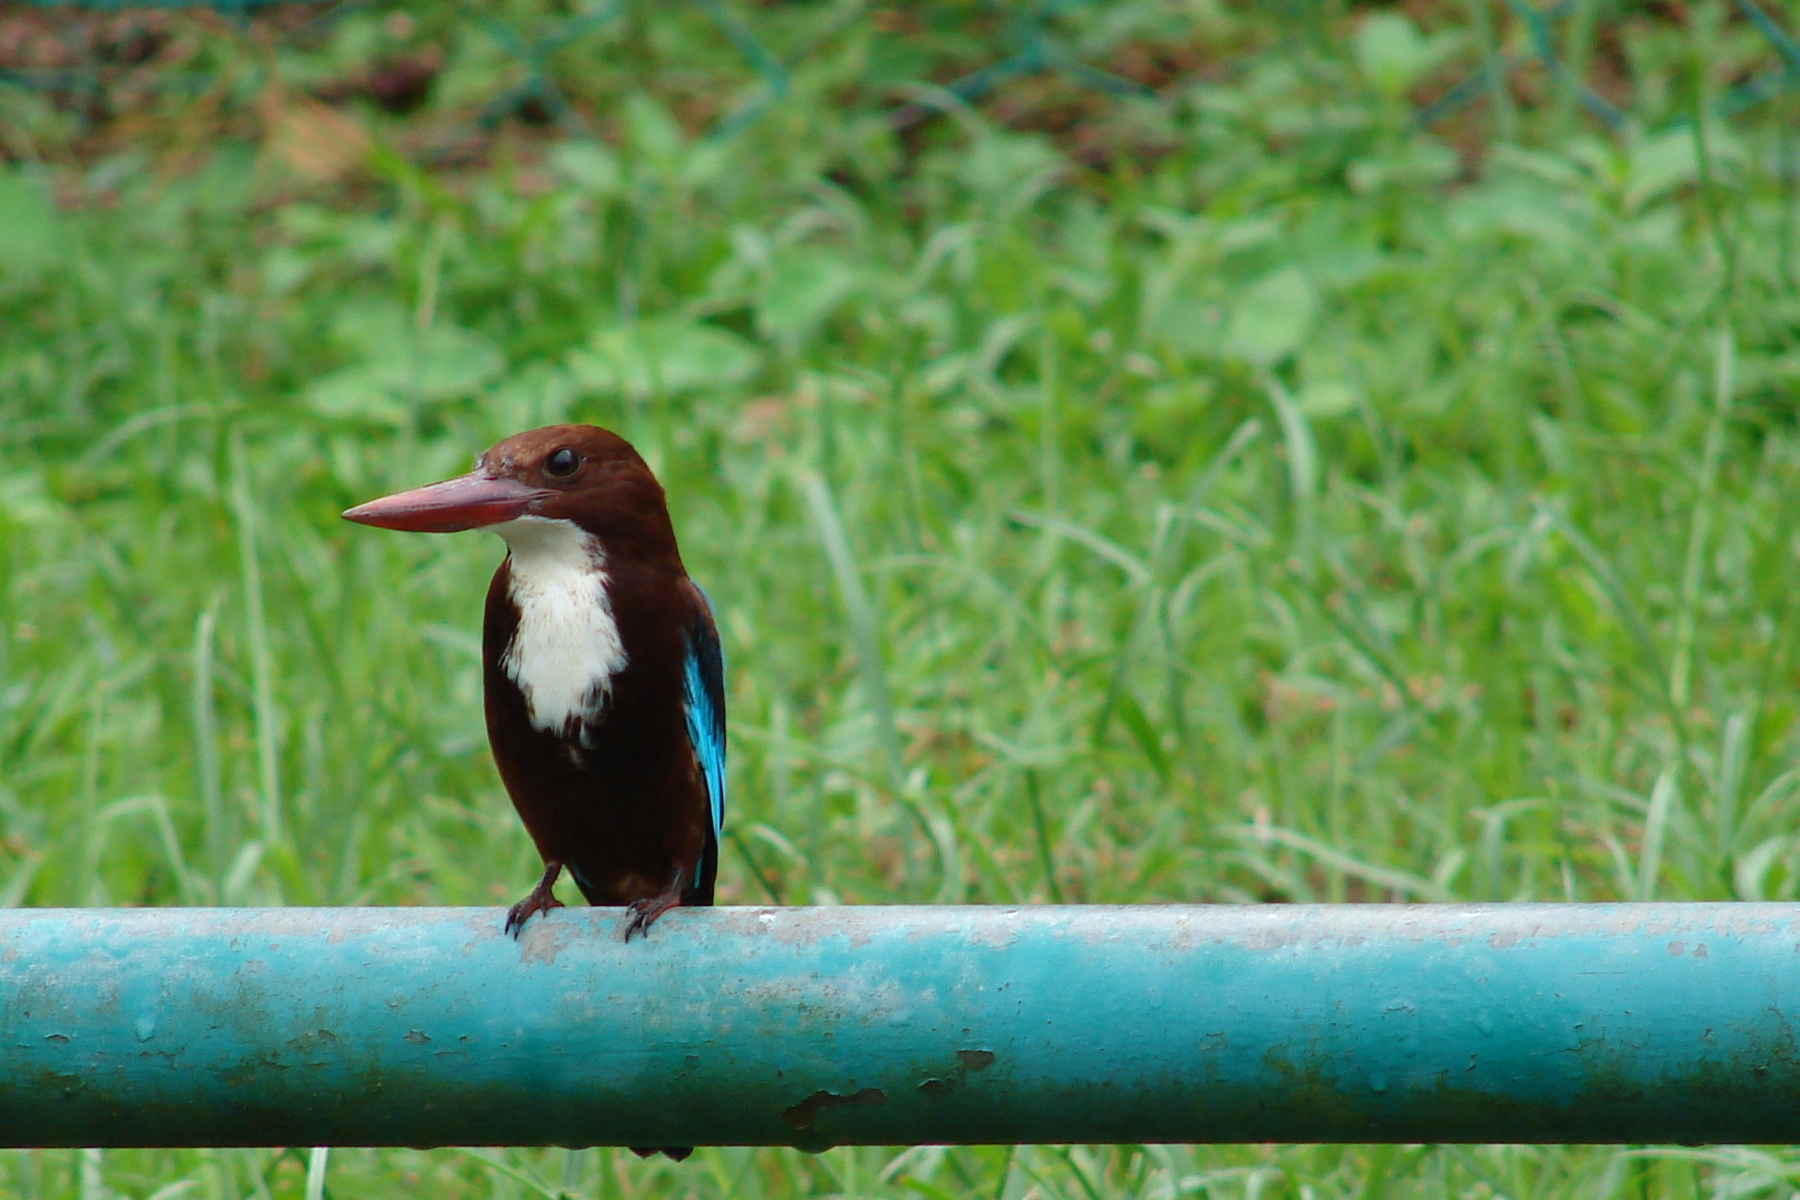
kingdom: Animalia
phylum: Chordata
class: Aves
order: Coraciiformes
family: Alcedinidae
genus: Halcyon
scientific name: Halcyon smyrnensis
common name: White-throated kingfisher
